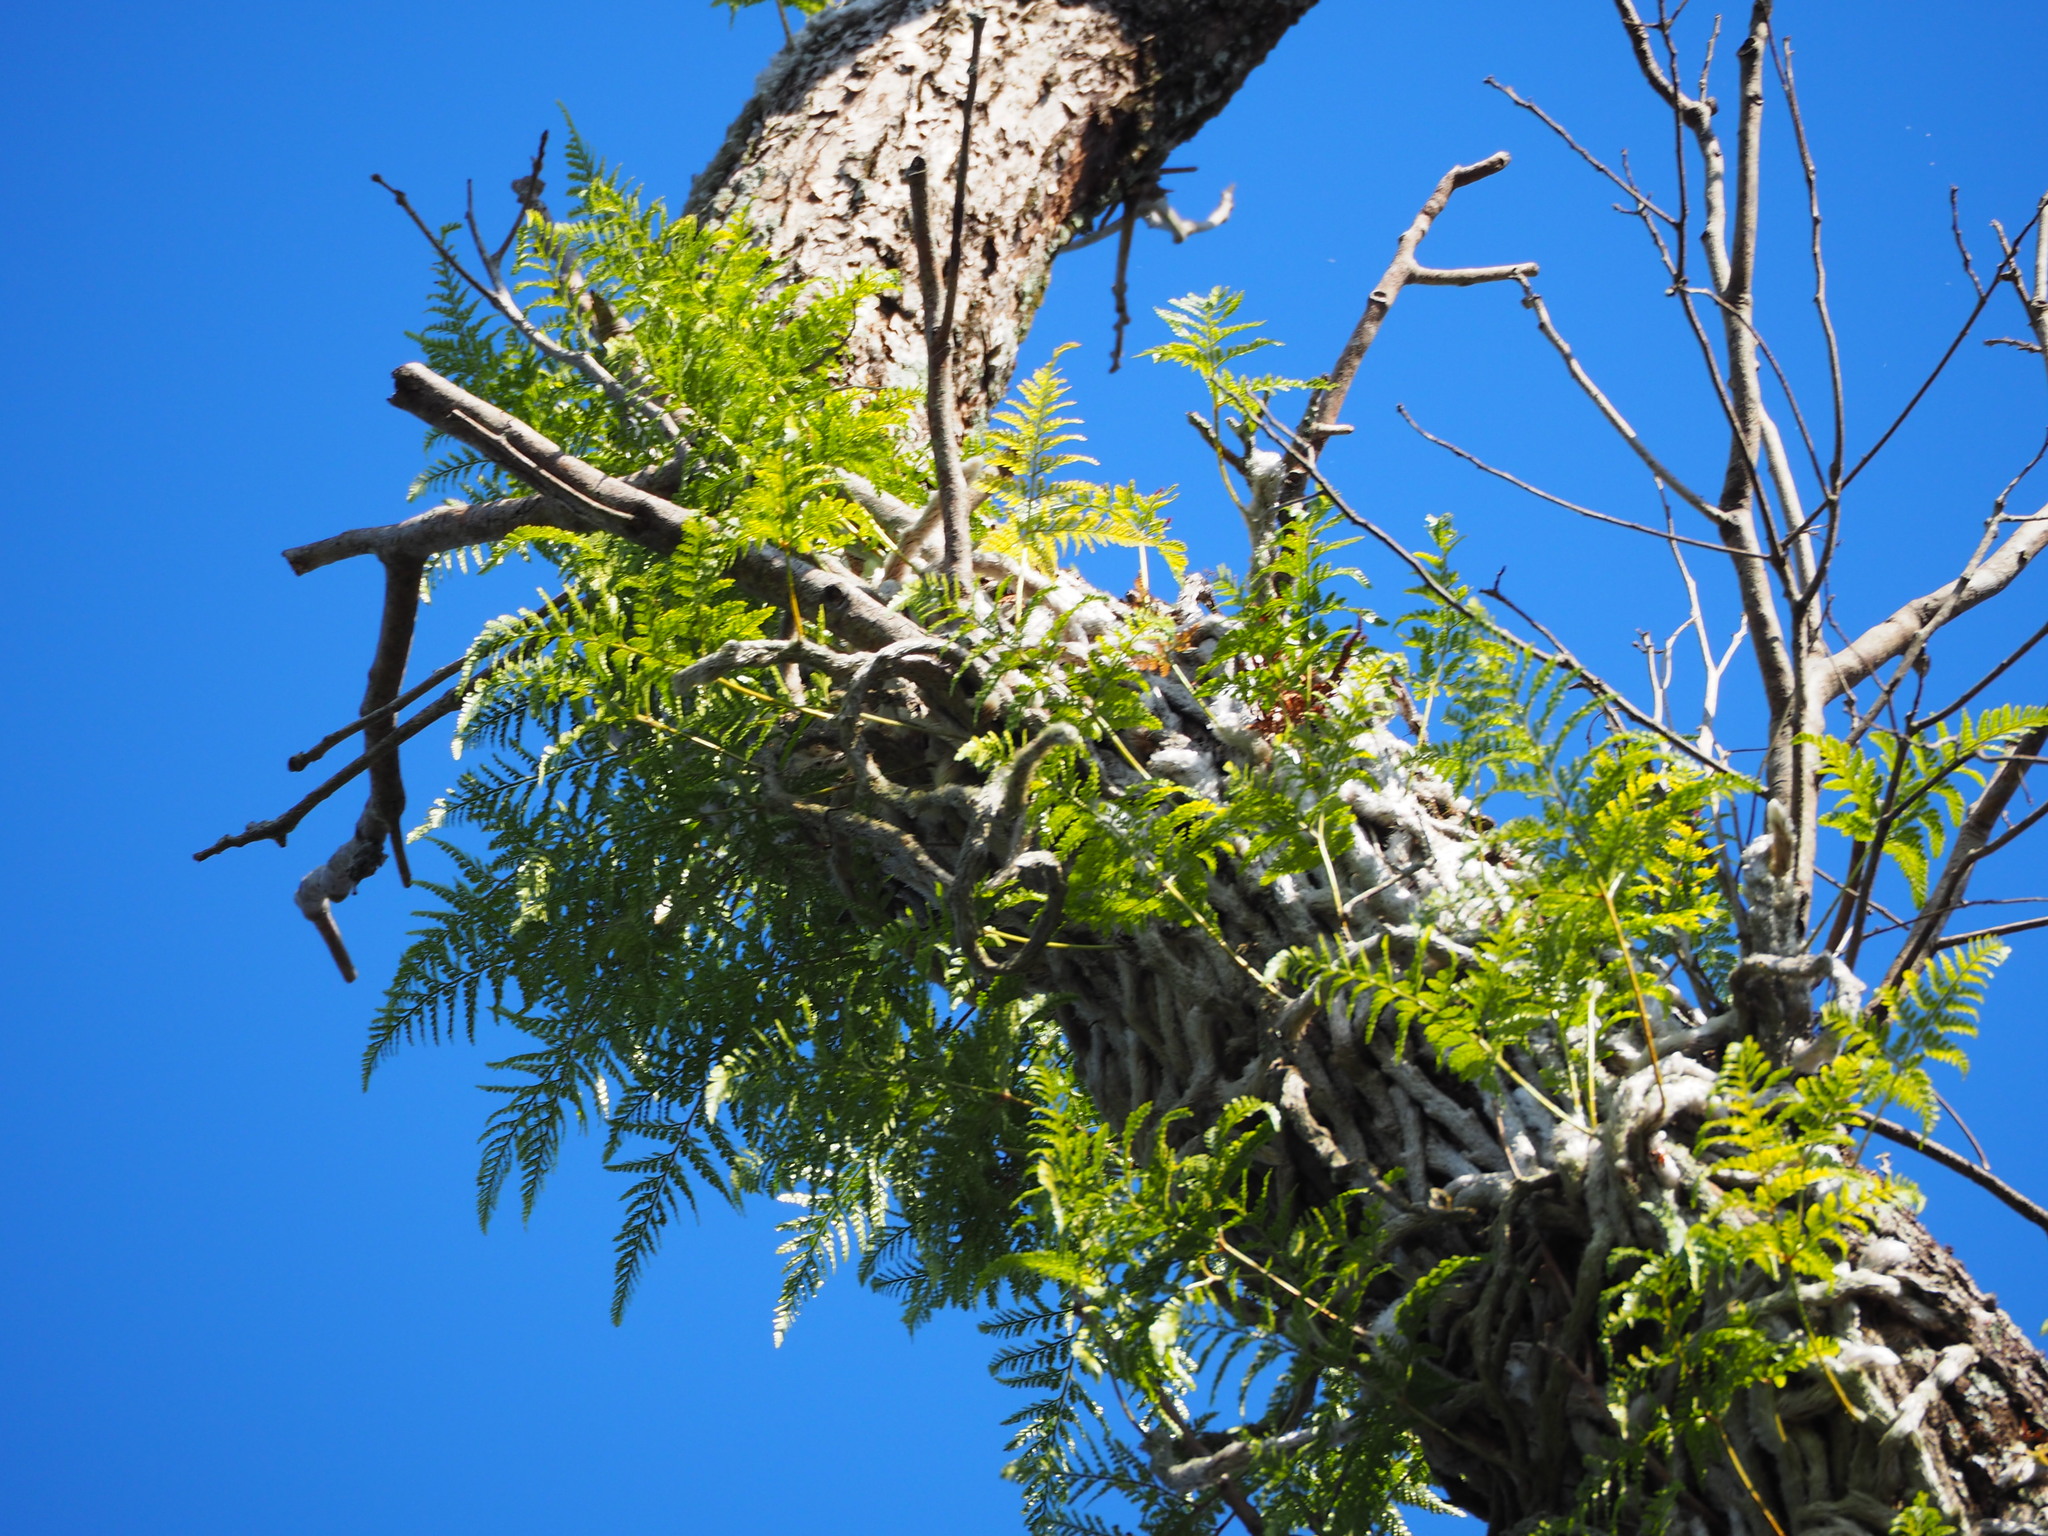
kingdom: Plantae
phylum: Tracheophyta
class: Polypodiopsida
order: Polypodiales
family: Davalliaceae
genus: Davallia
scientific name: Davallia griffithiana
